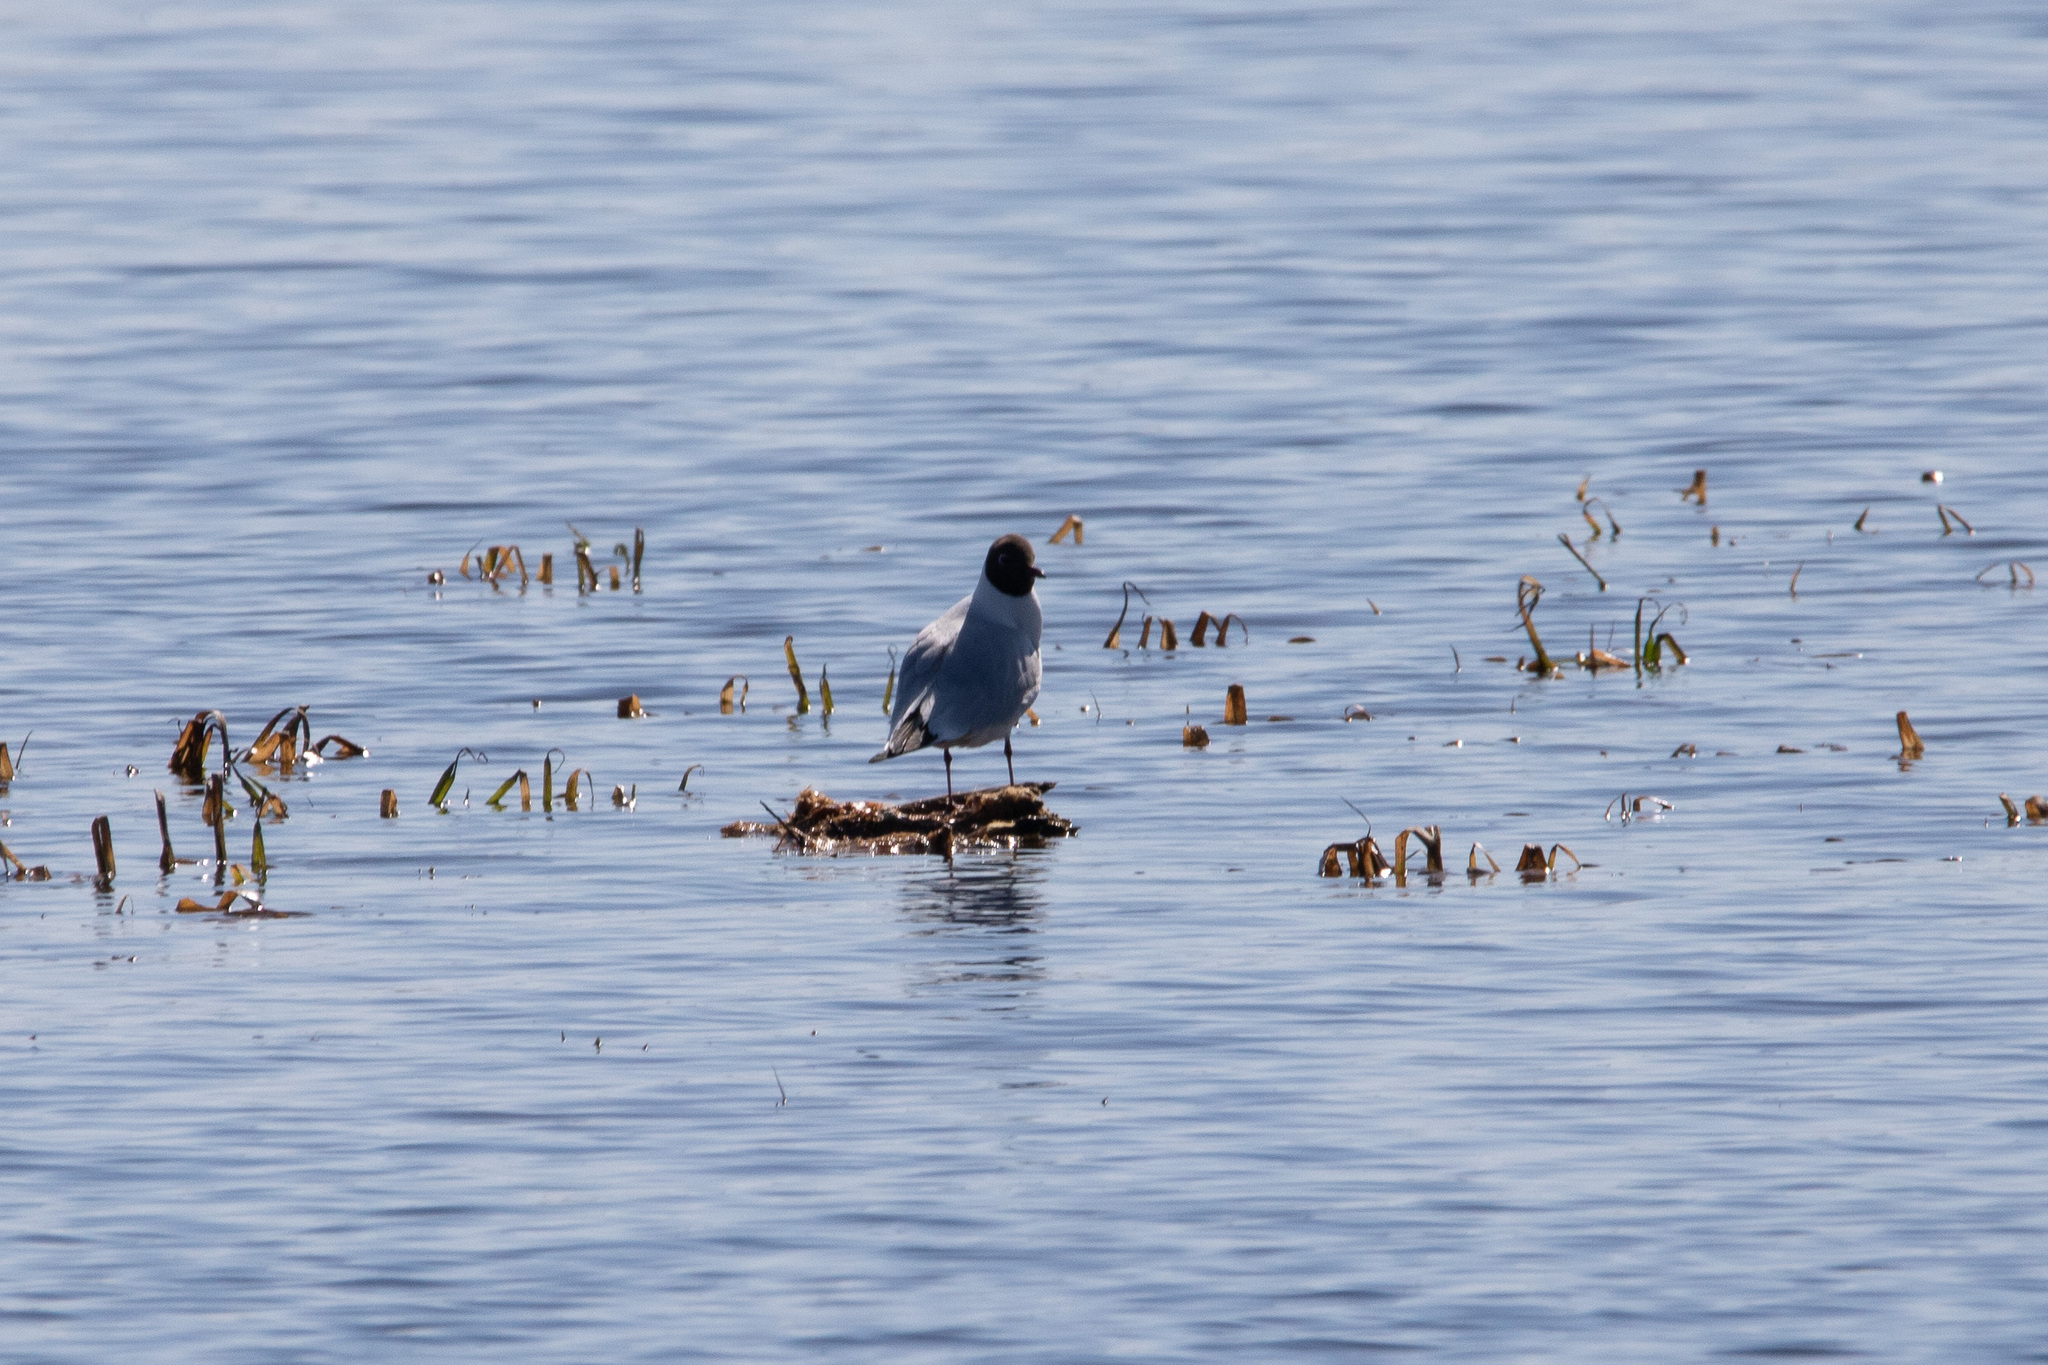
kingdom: Animalia
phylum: Chordata
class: Aves
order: Charadriiformes
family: Laridae
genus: Chroicocephalus
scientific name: Chroicocephalus ridibundus
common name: Black-headed gull
